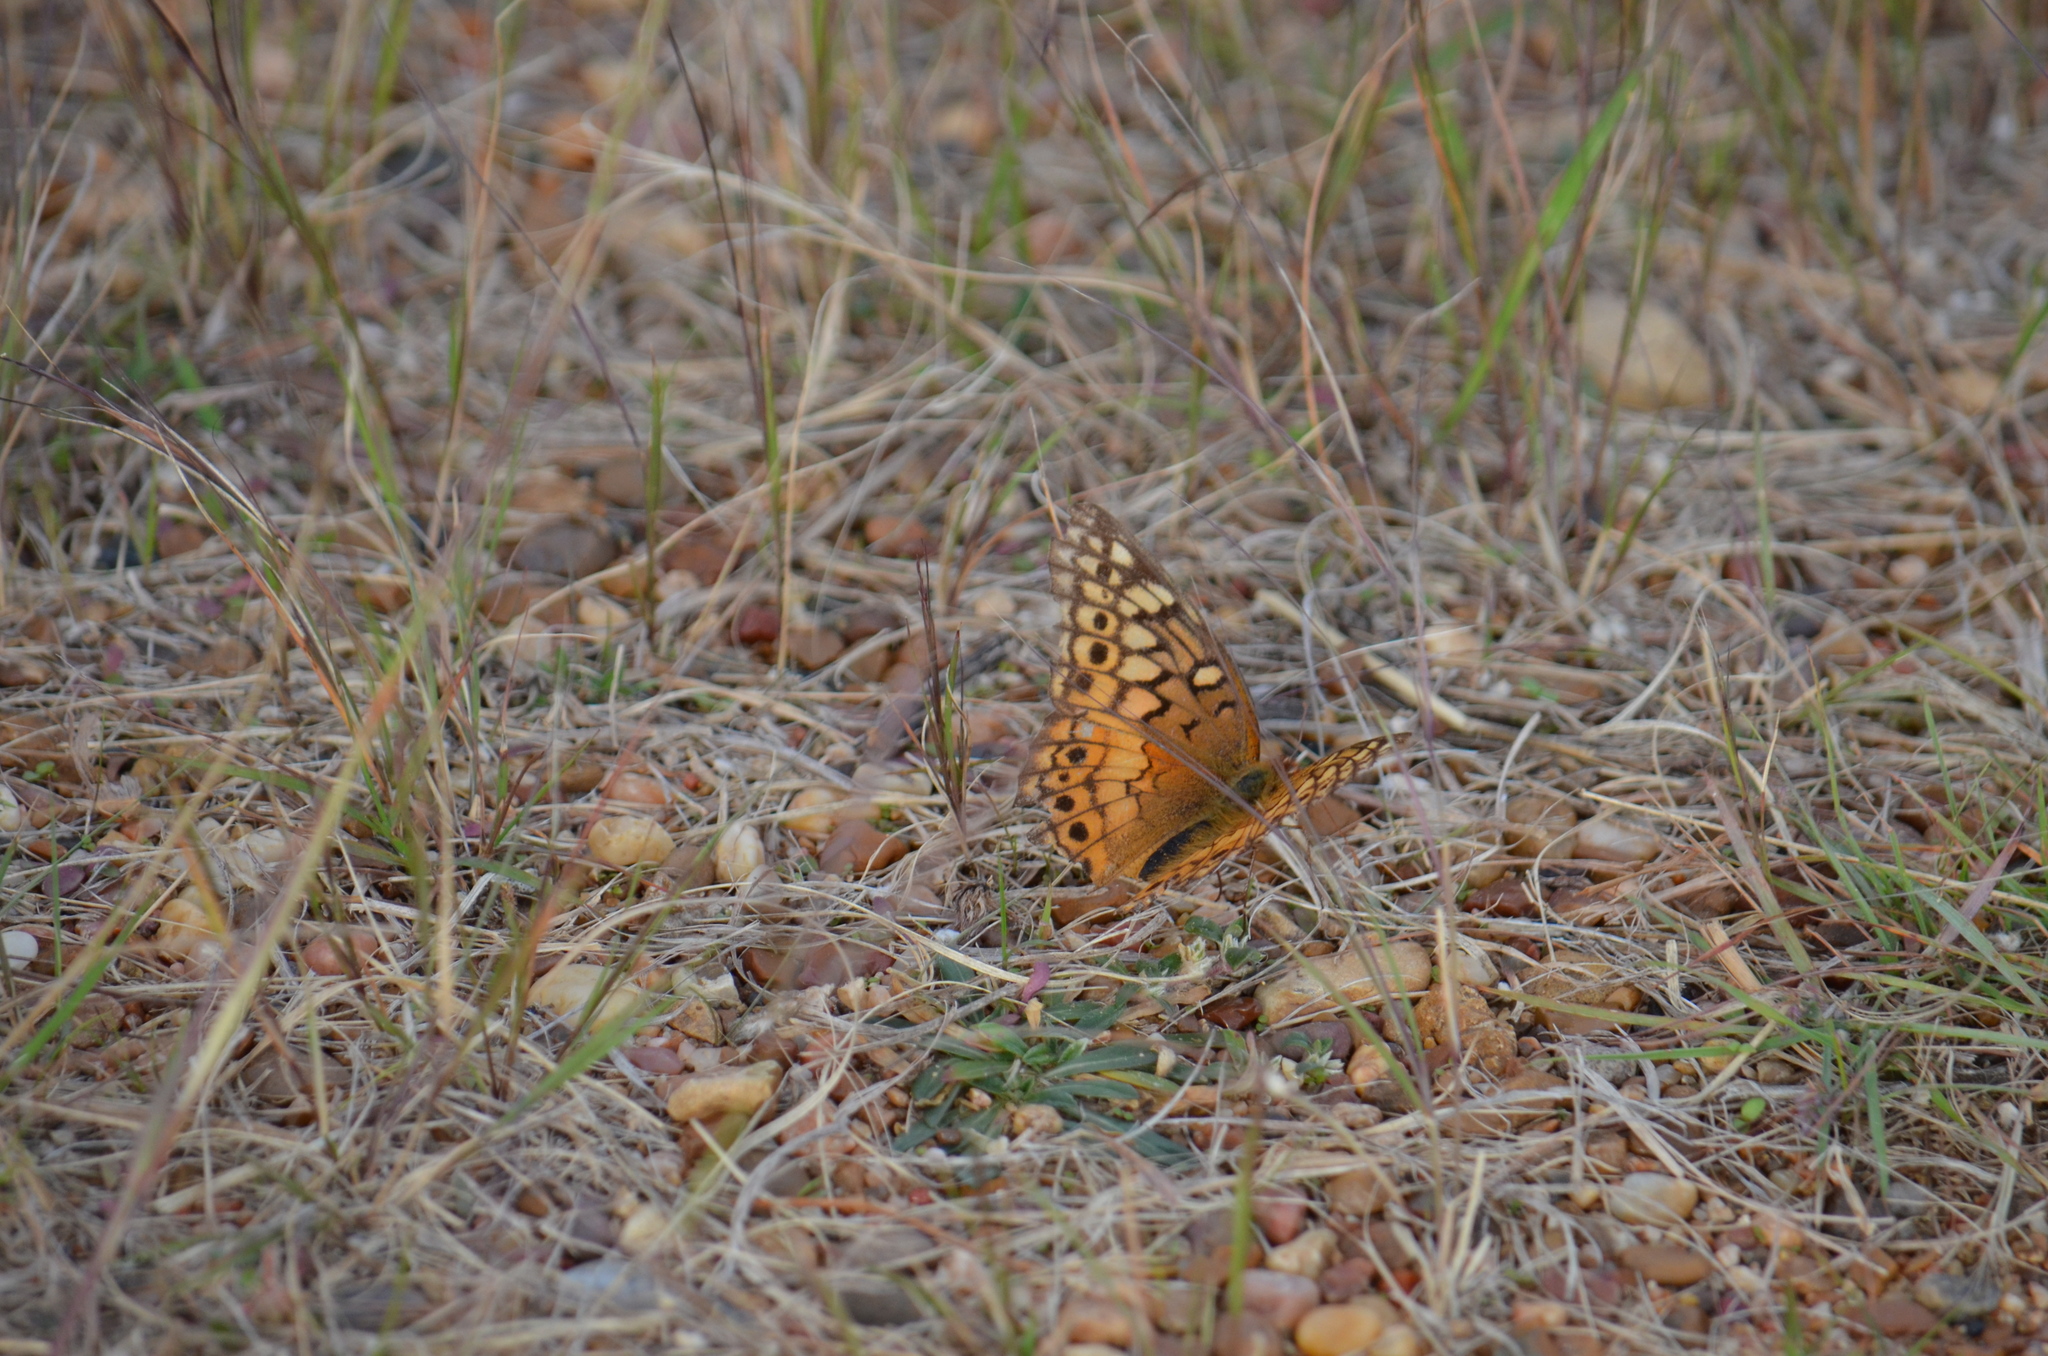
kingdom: Animalia
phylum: Arthropoda
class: Insecta
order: Lepidoptera
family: Nymphalidae
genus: Euptoieta
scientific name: Euptoieta claudia
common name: Variegated fritillary
